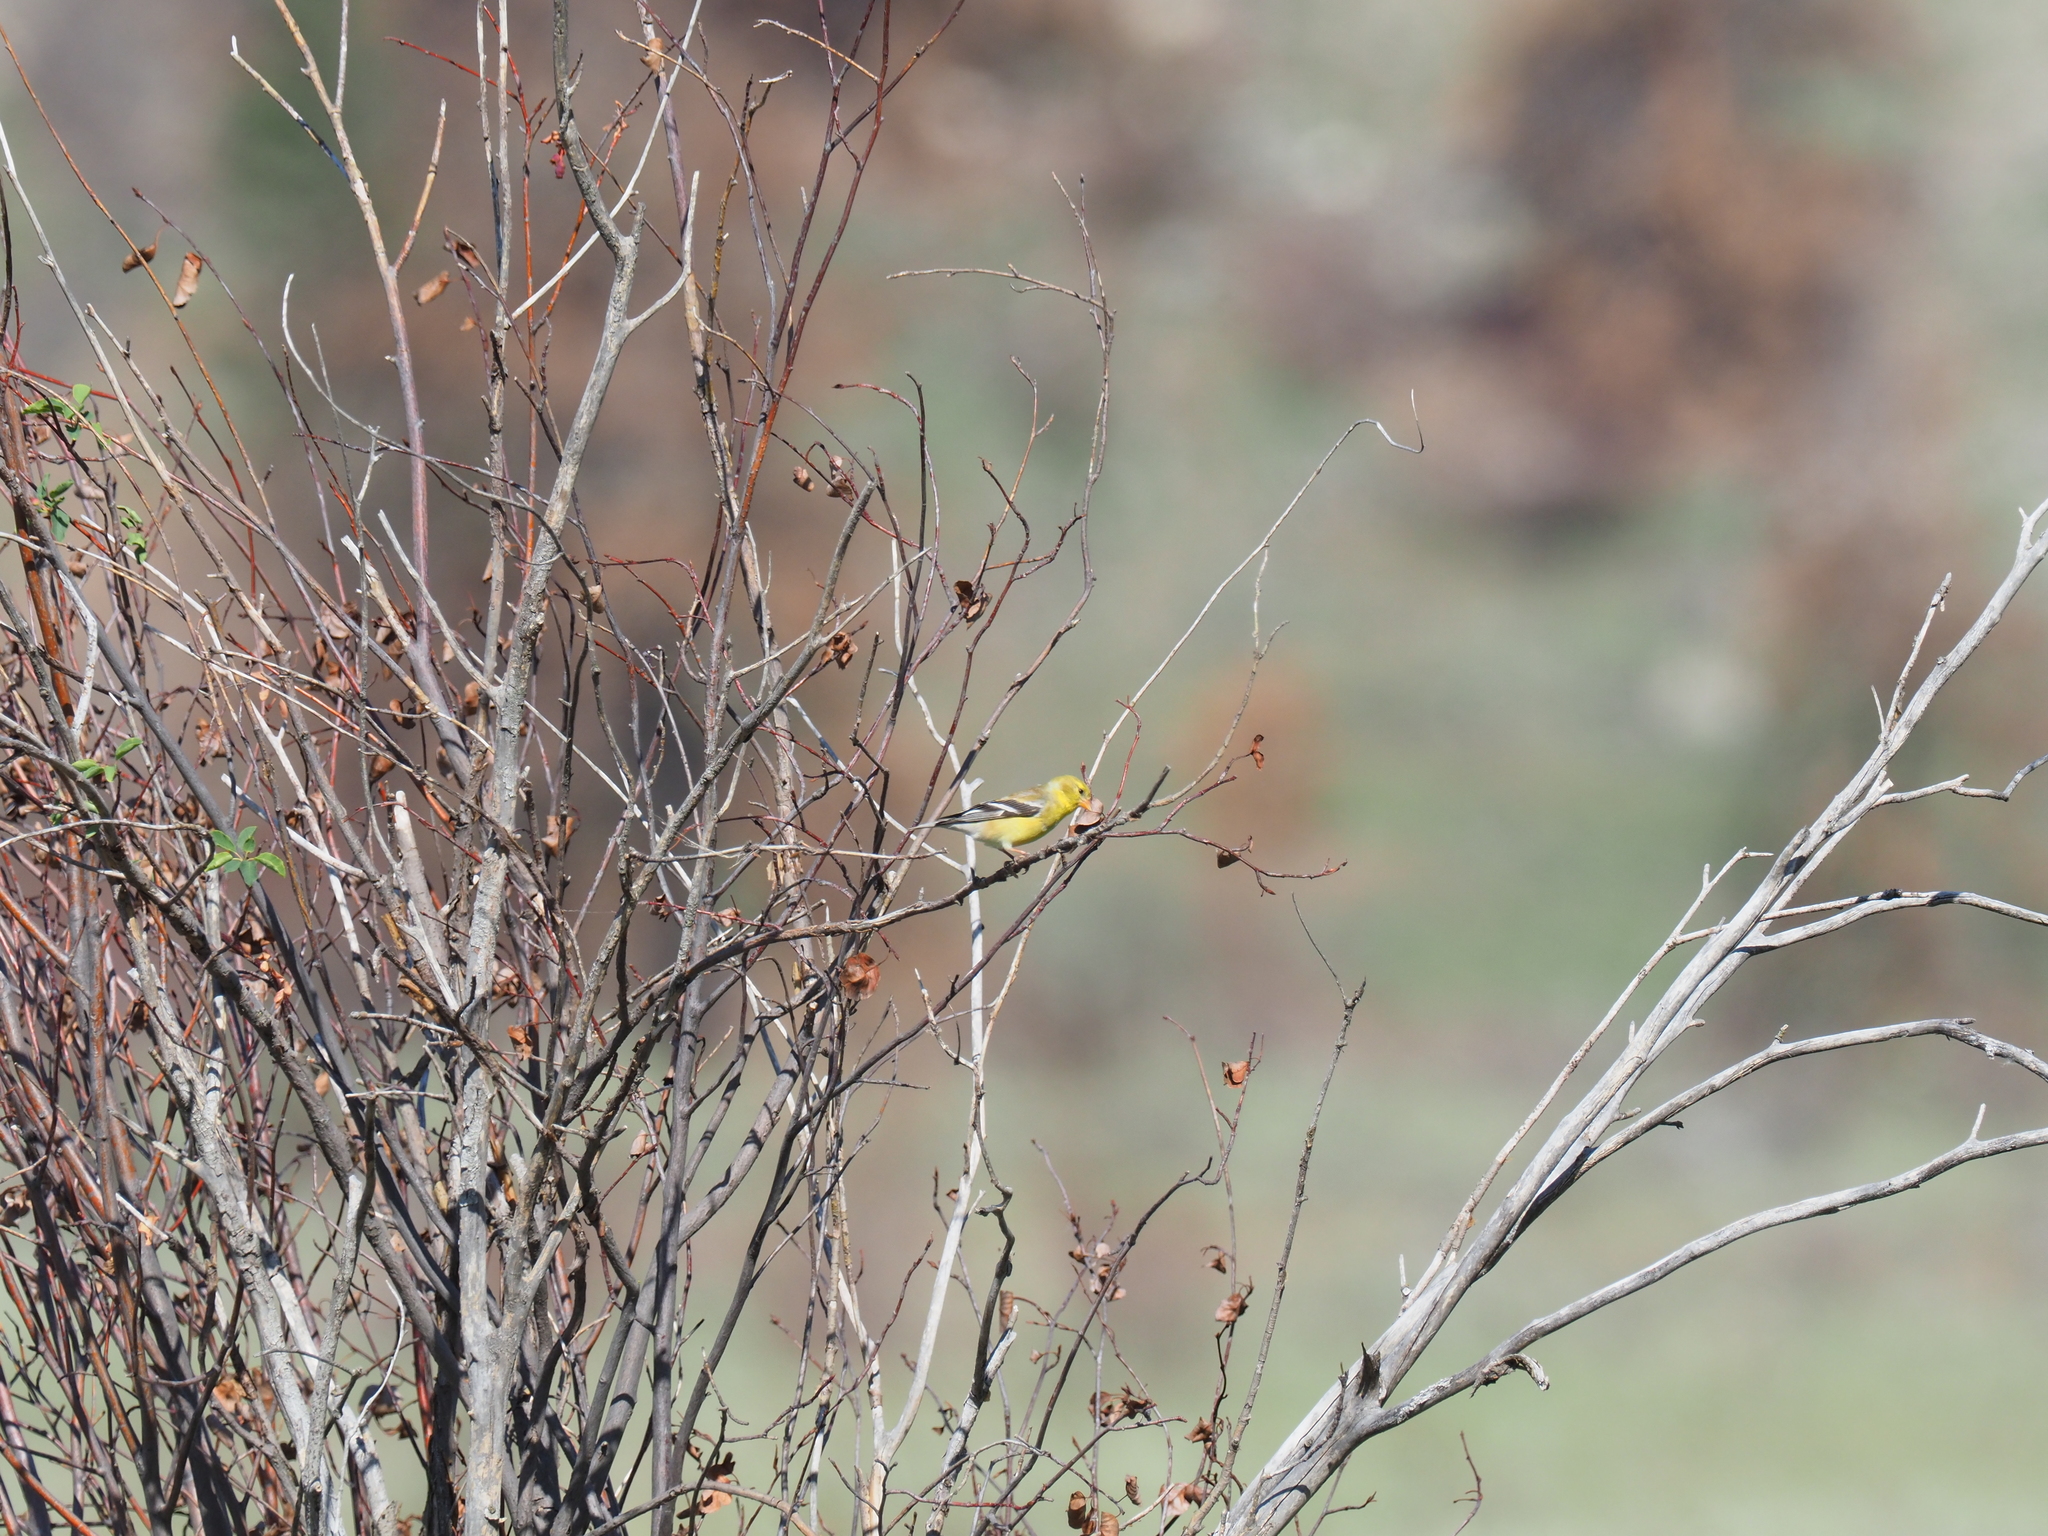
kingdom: Animalia
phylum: Chordata
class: Aves
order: Passeriformes
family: Fringillidae
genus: Spinus
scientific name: Spinus tristis
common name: American goldfinch
